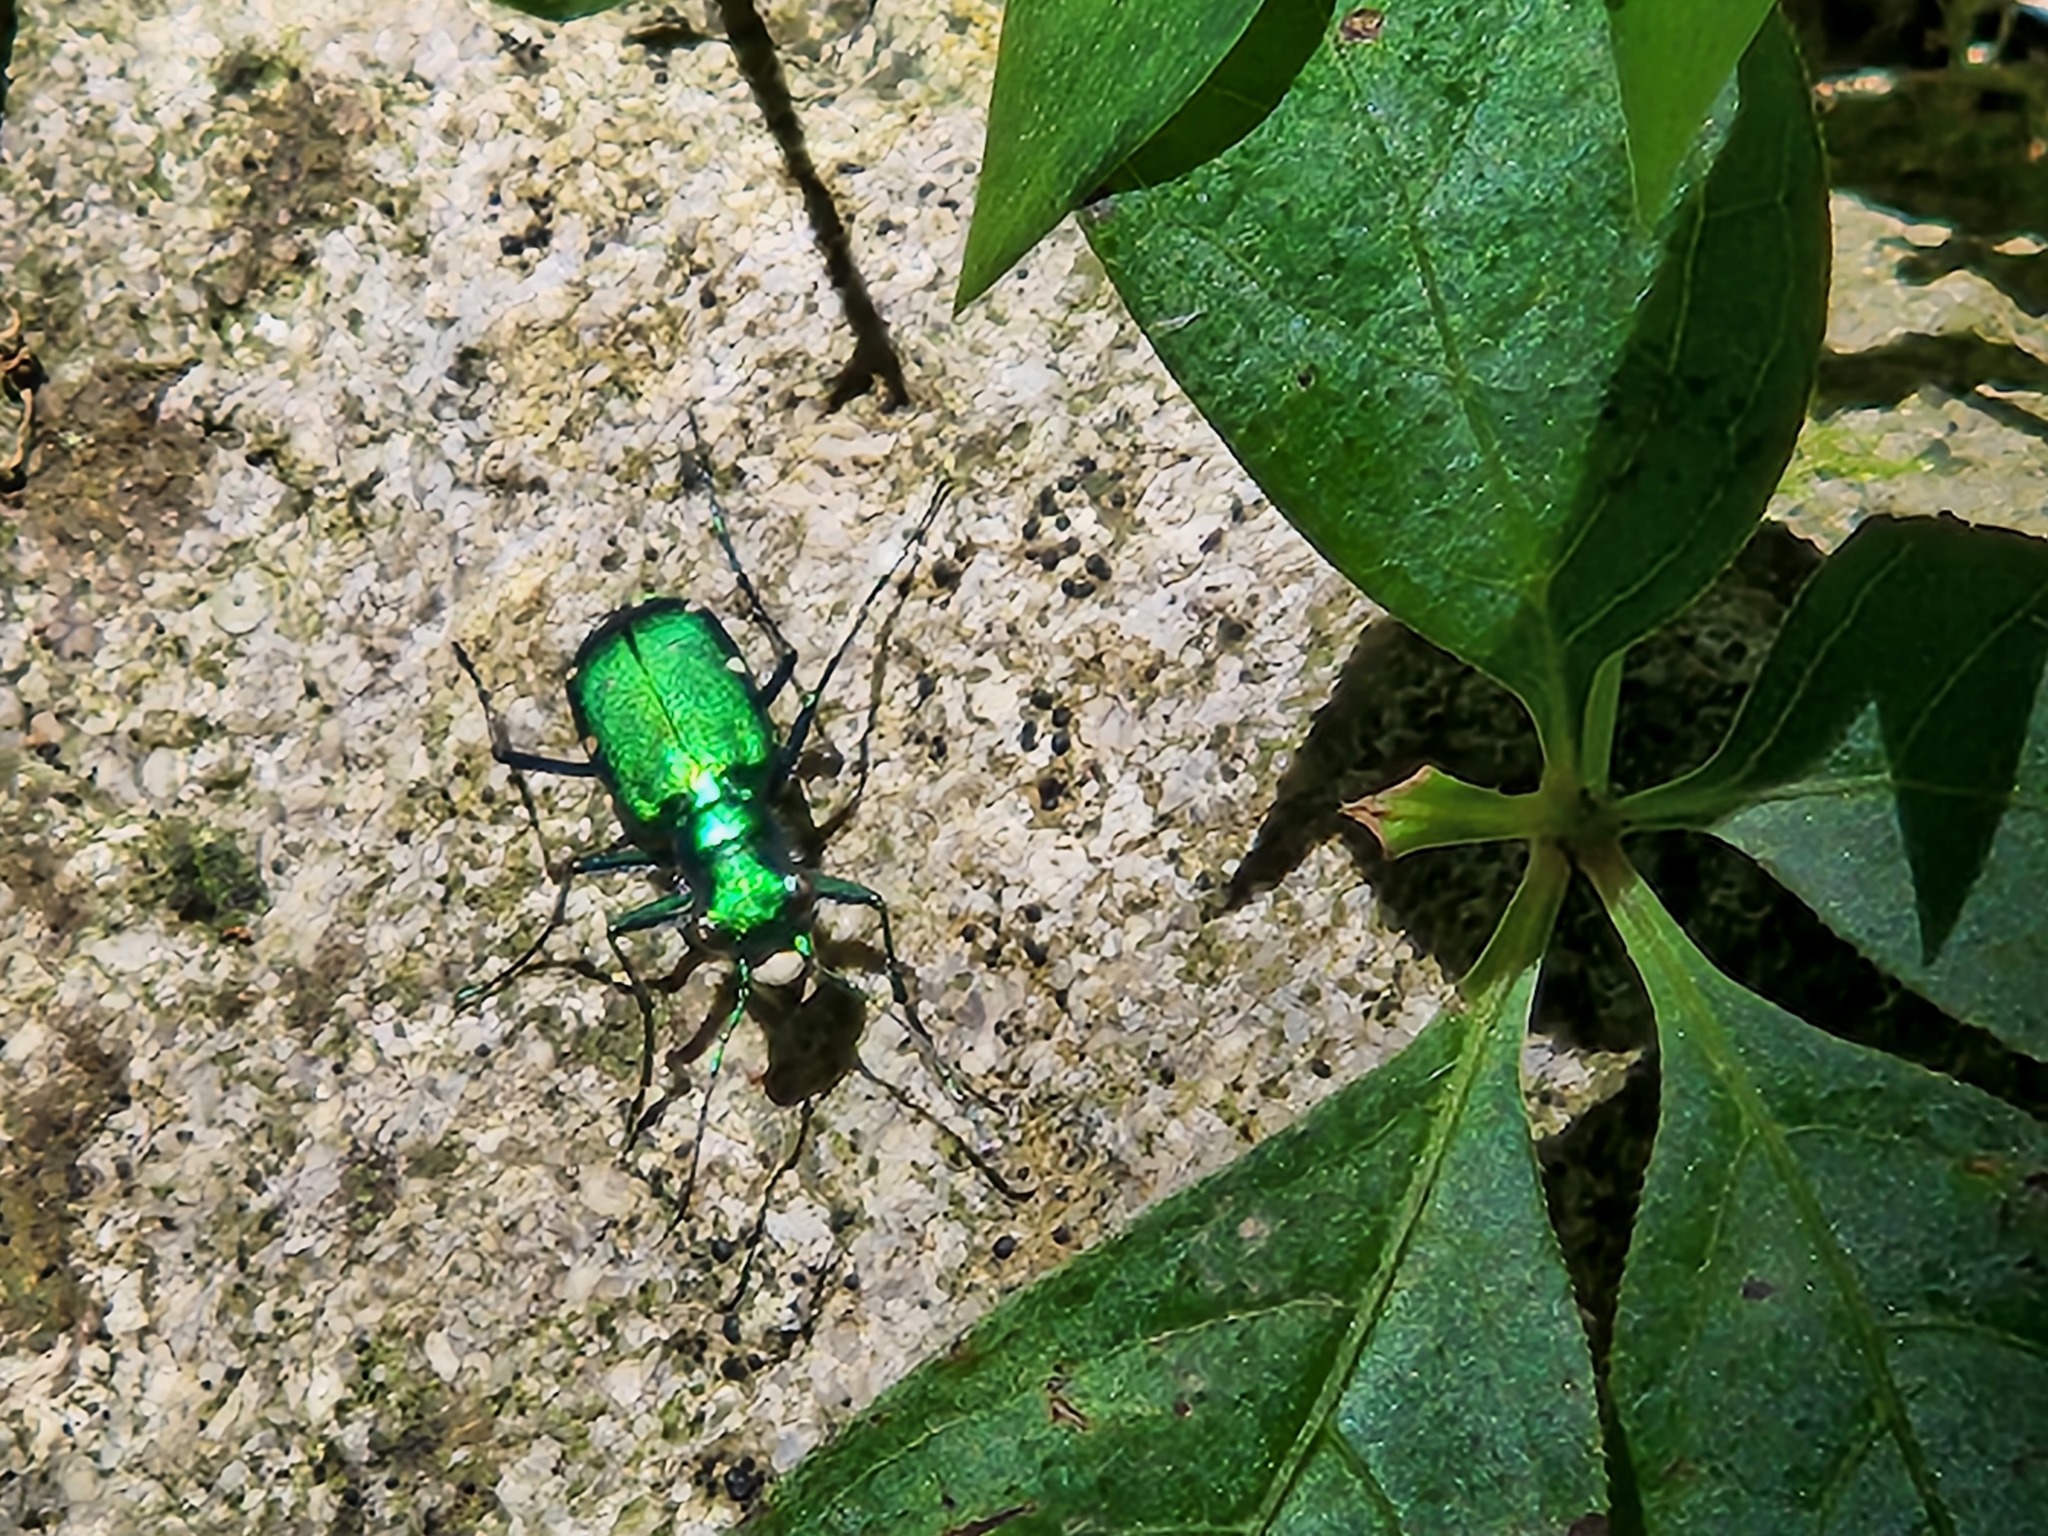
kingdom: Animalia
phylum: Arthropoda
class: Insecta
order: Coleoptera
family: Carabidae
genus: Cicindela
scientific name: Cicindela sexguttata
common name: Six-spotted tiger beetle
